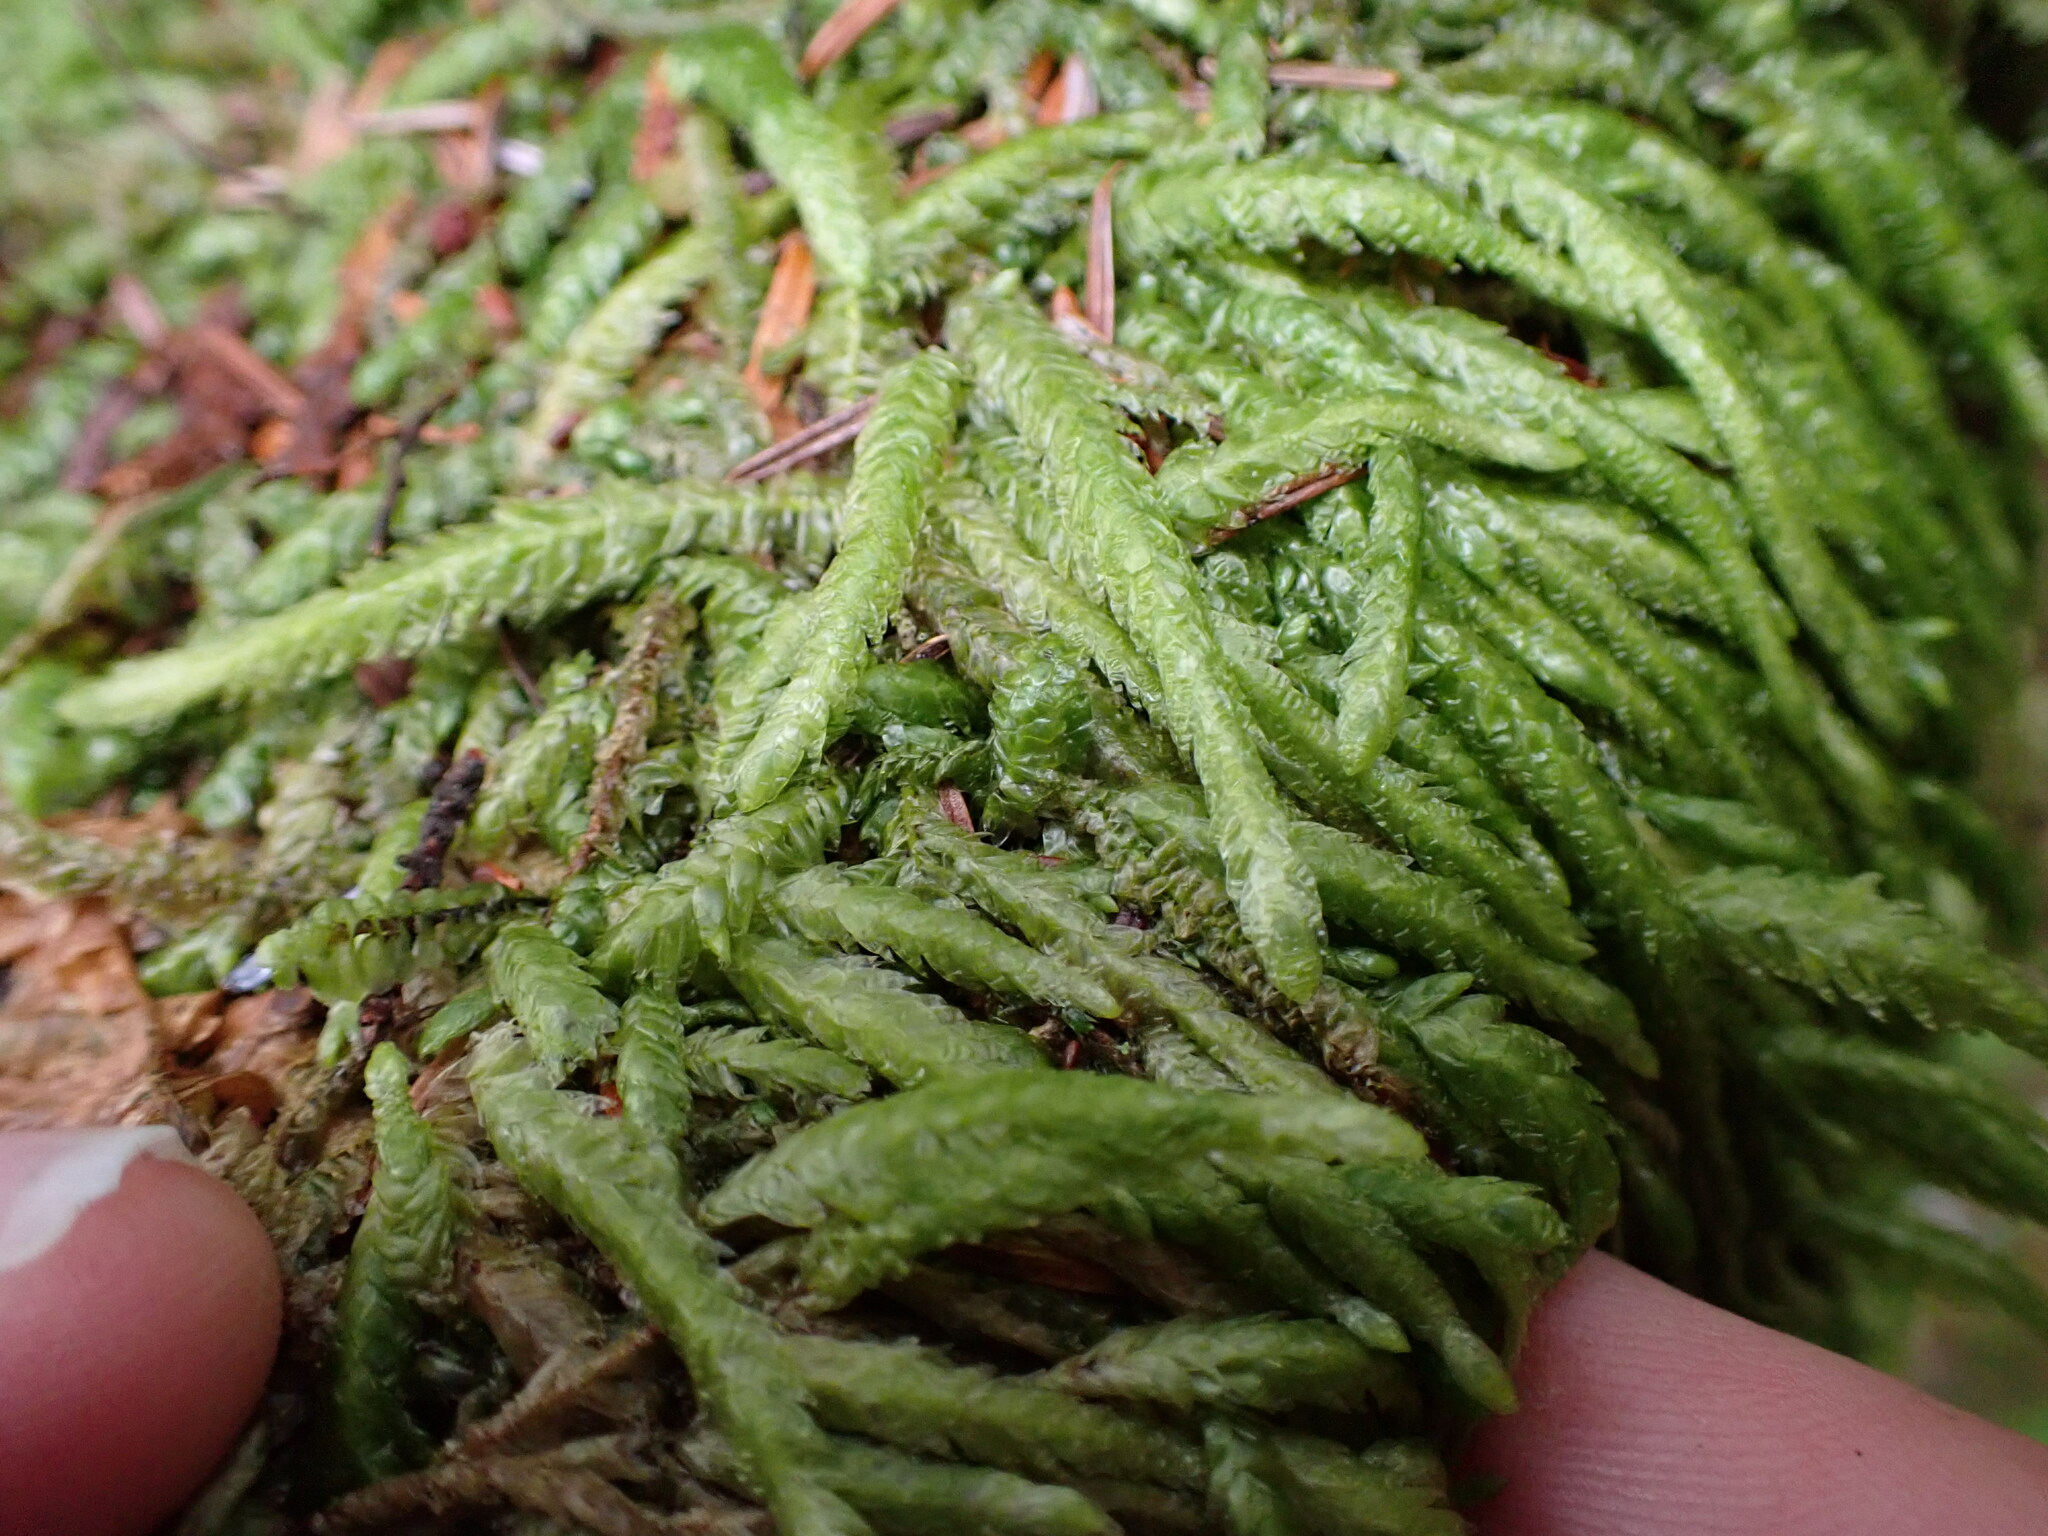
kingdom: Plantae
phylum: Bryophyta
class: Bryopsida
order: Hypnales
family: Plagiotheciaceae
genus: Plagiothecium
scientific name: Plagiothecium undulatum
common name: Waved silk-moss
